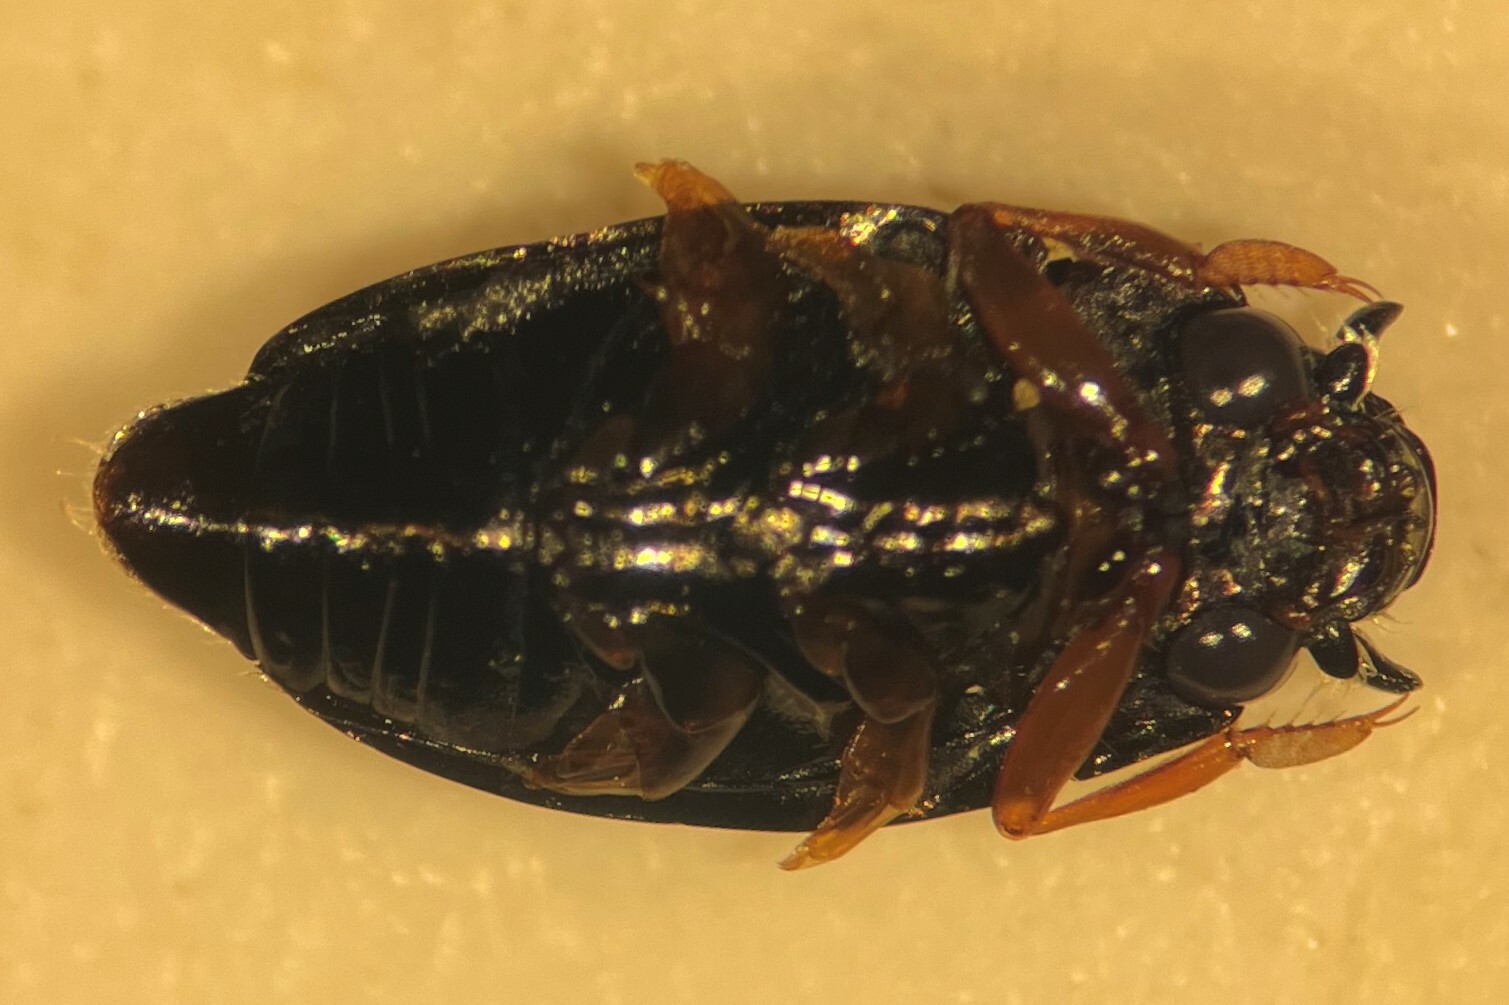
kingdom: Animalia
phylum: Arthropoda
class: Insecta
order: Coleoptera
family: Gyrinidae
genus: Gyrinus
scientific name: Gyrinus parcus
